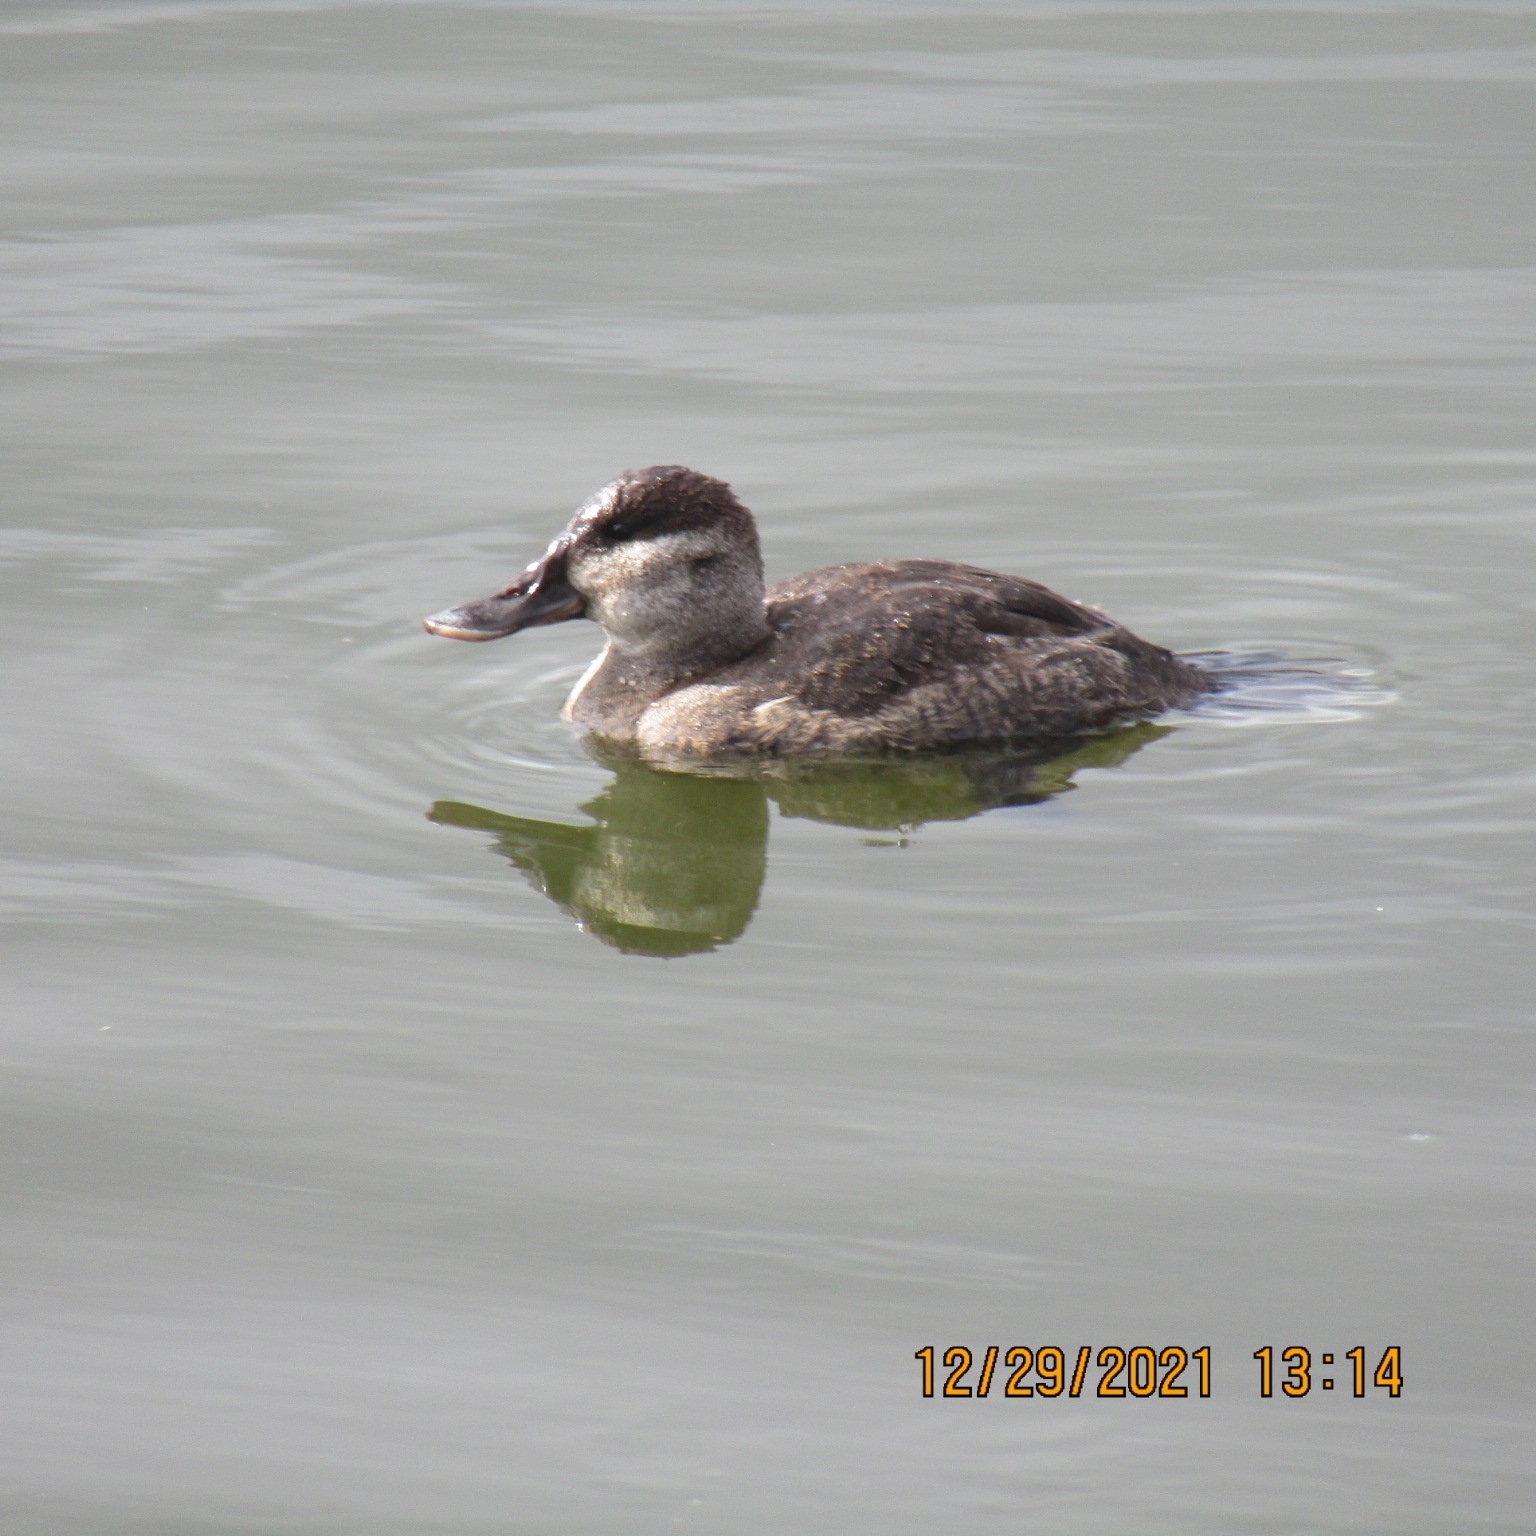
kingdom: Animalia
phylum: Chordata
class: Aves
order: Anseriformes
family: Anatidae
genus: Oxyura
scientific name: Oxyura jamaicensis
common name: Ruddy duck
